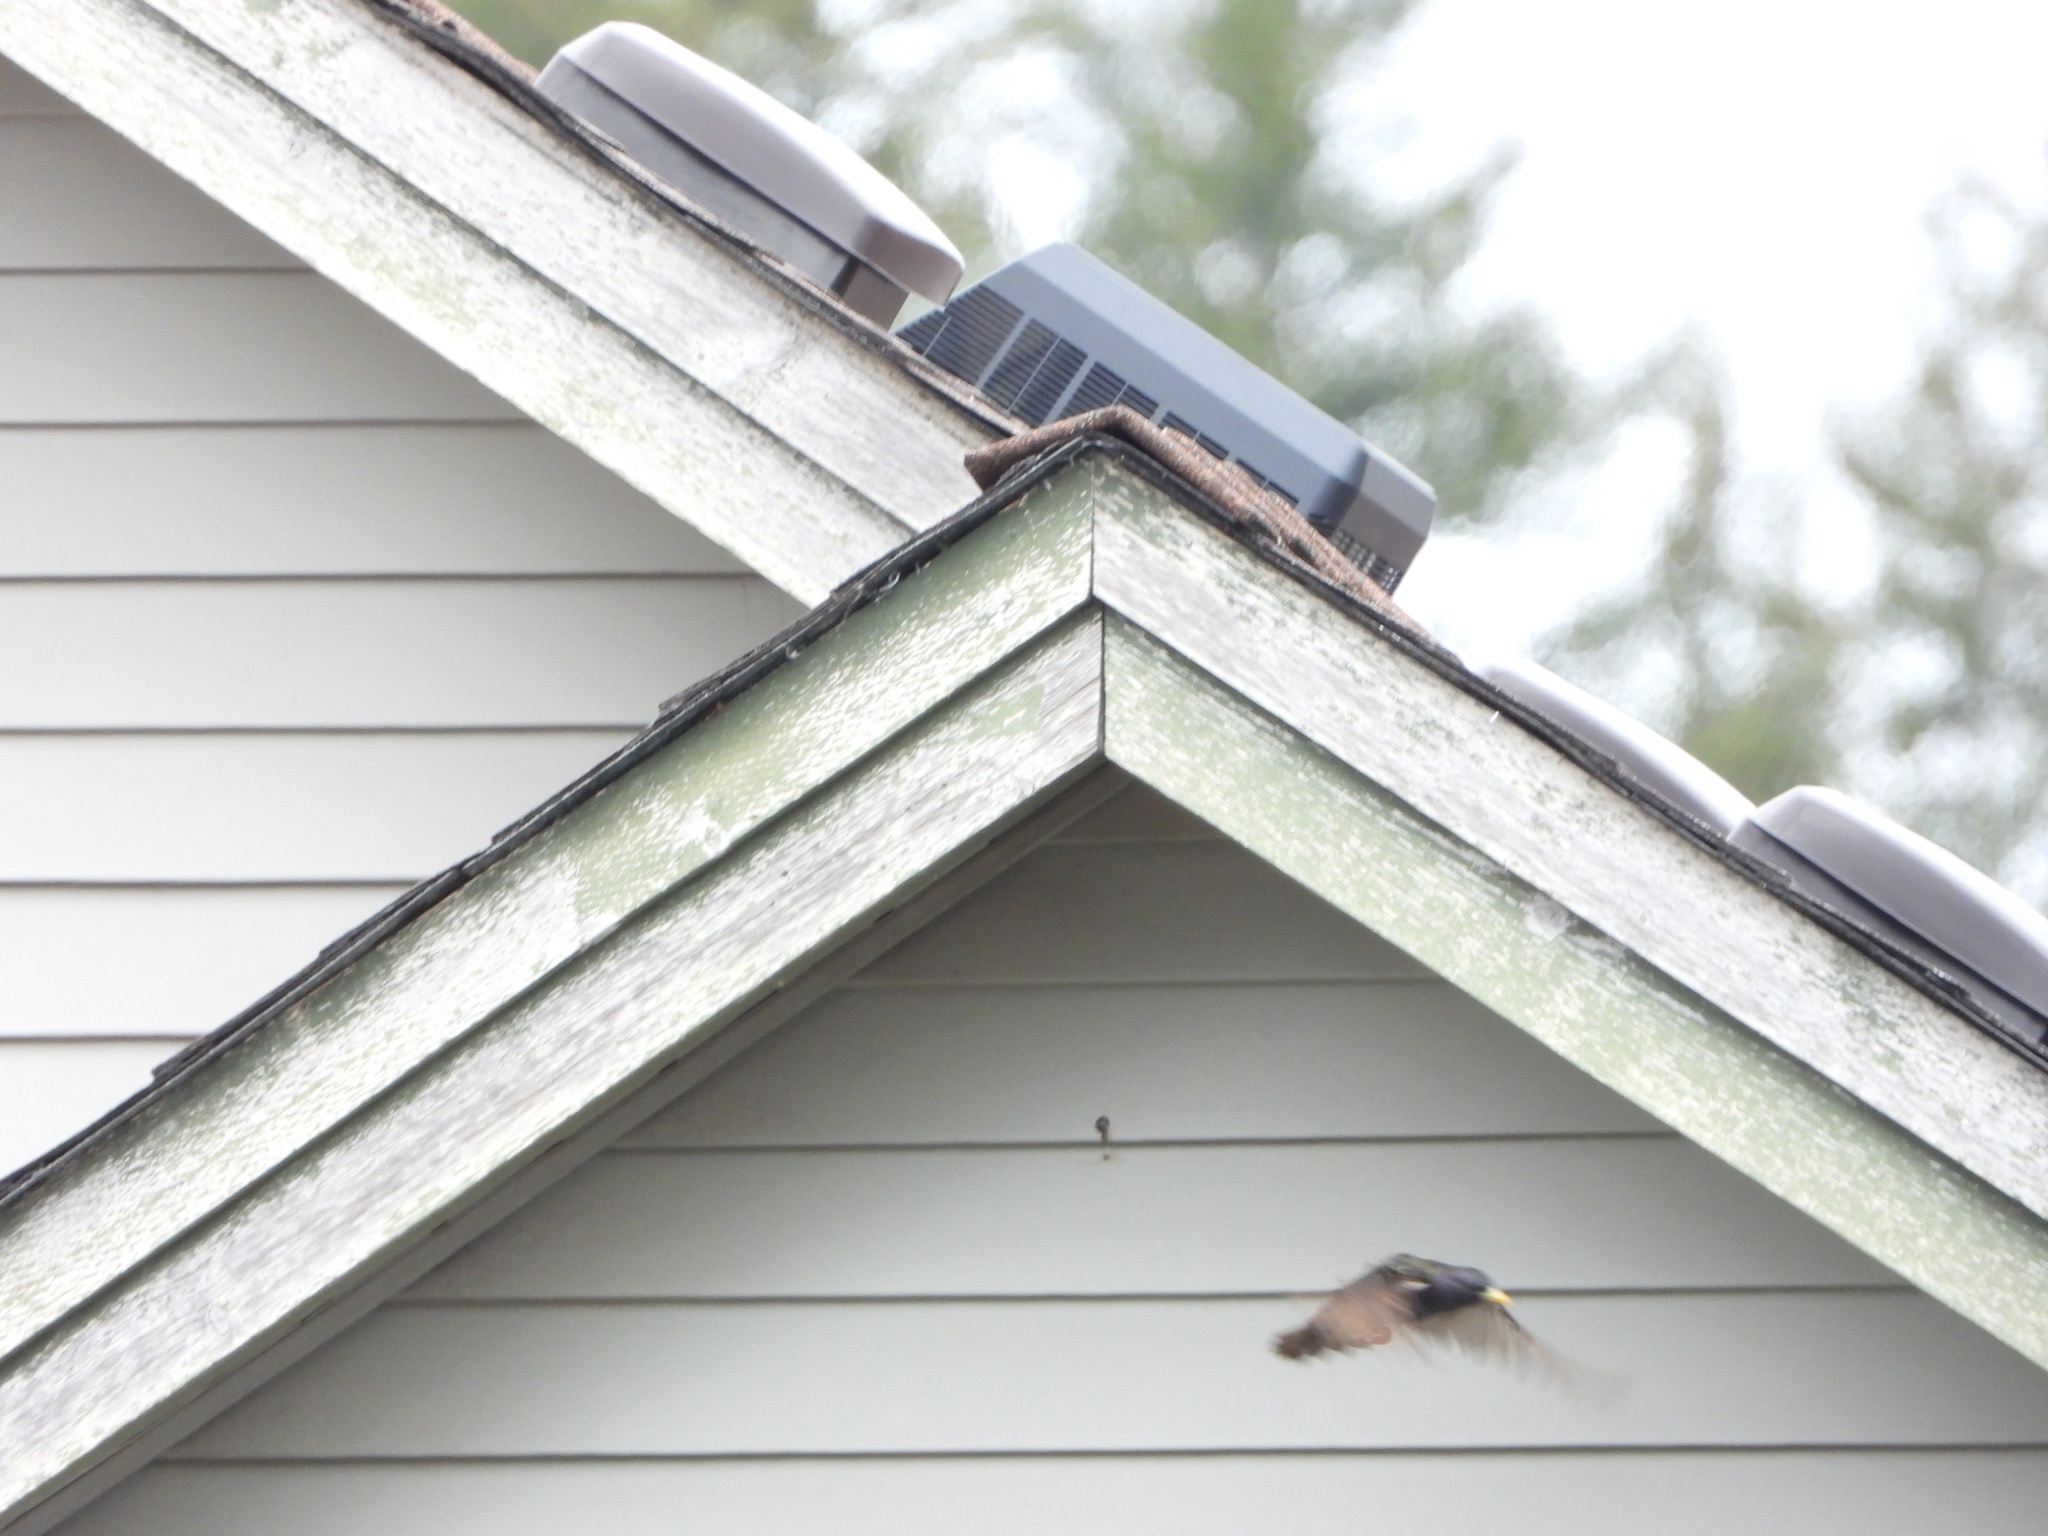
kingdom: Animalia
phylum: Chordata
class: Aves
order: Passeriformes
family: Sturnidae
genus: Sturnus
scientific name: Sturnus vulgaris
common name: Common starling
